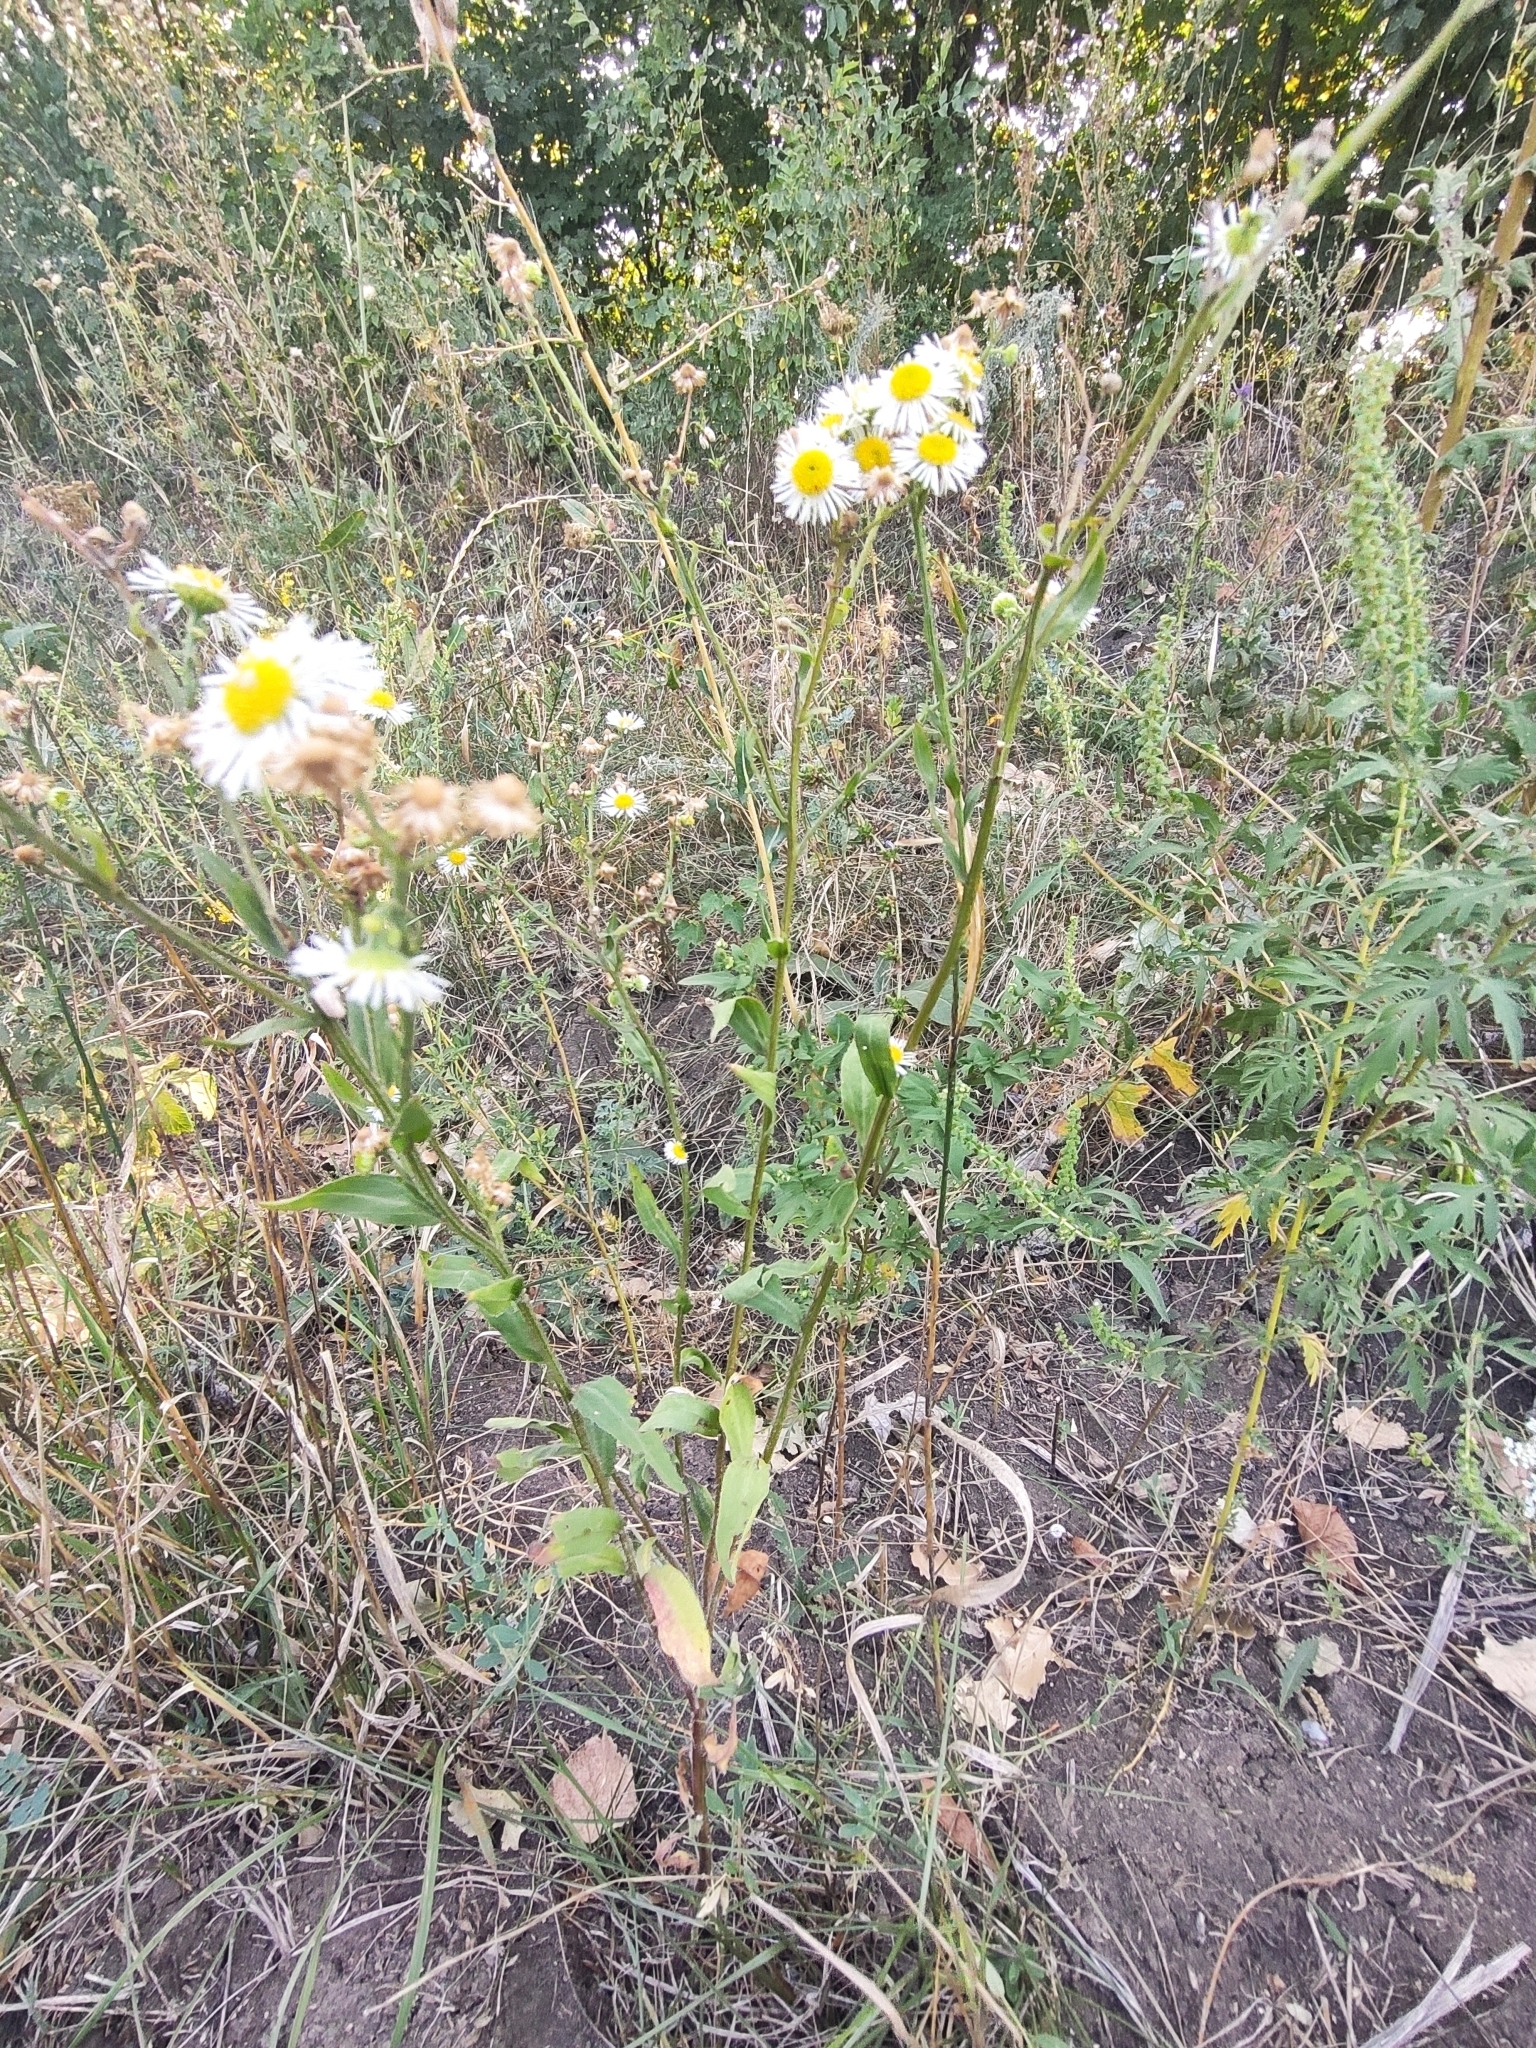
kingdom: Plantae
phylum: Tracheophyta
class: Magnoliopsida
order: Asterales
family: Asteraceae
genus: Erigeron
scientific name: Erigeron strigosus
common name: Common eastern fleabane
